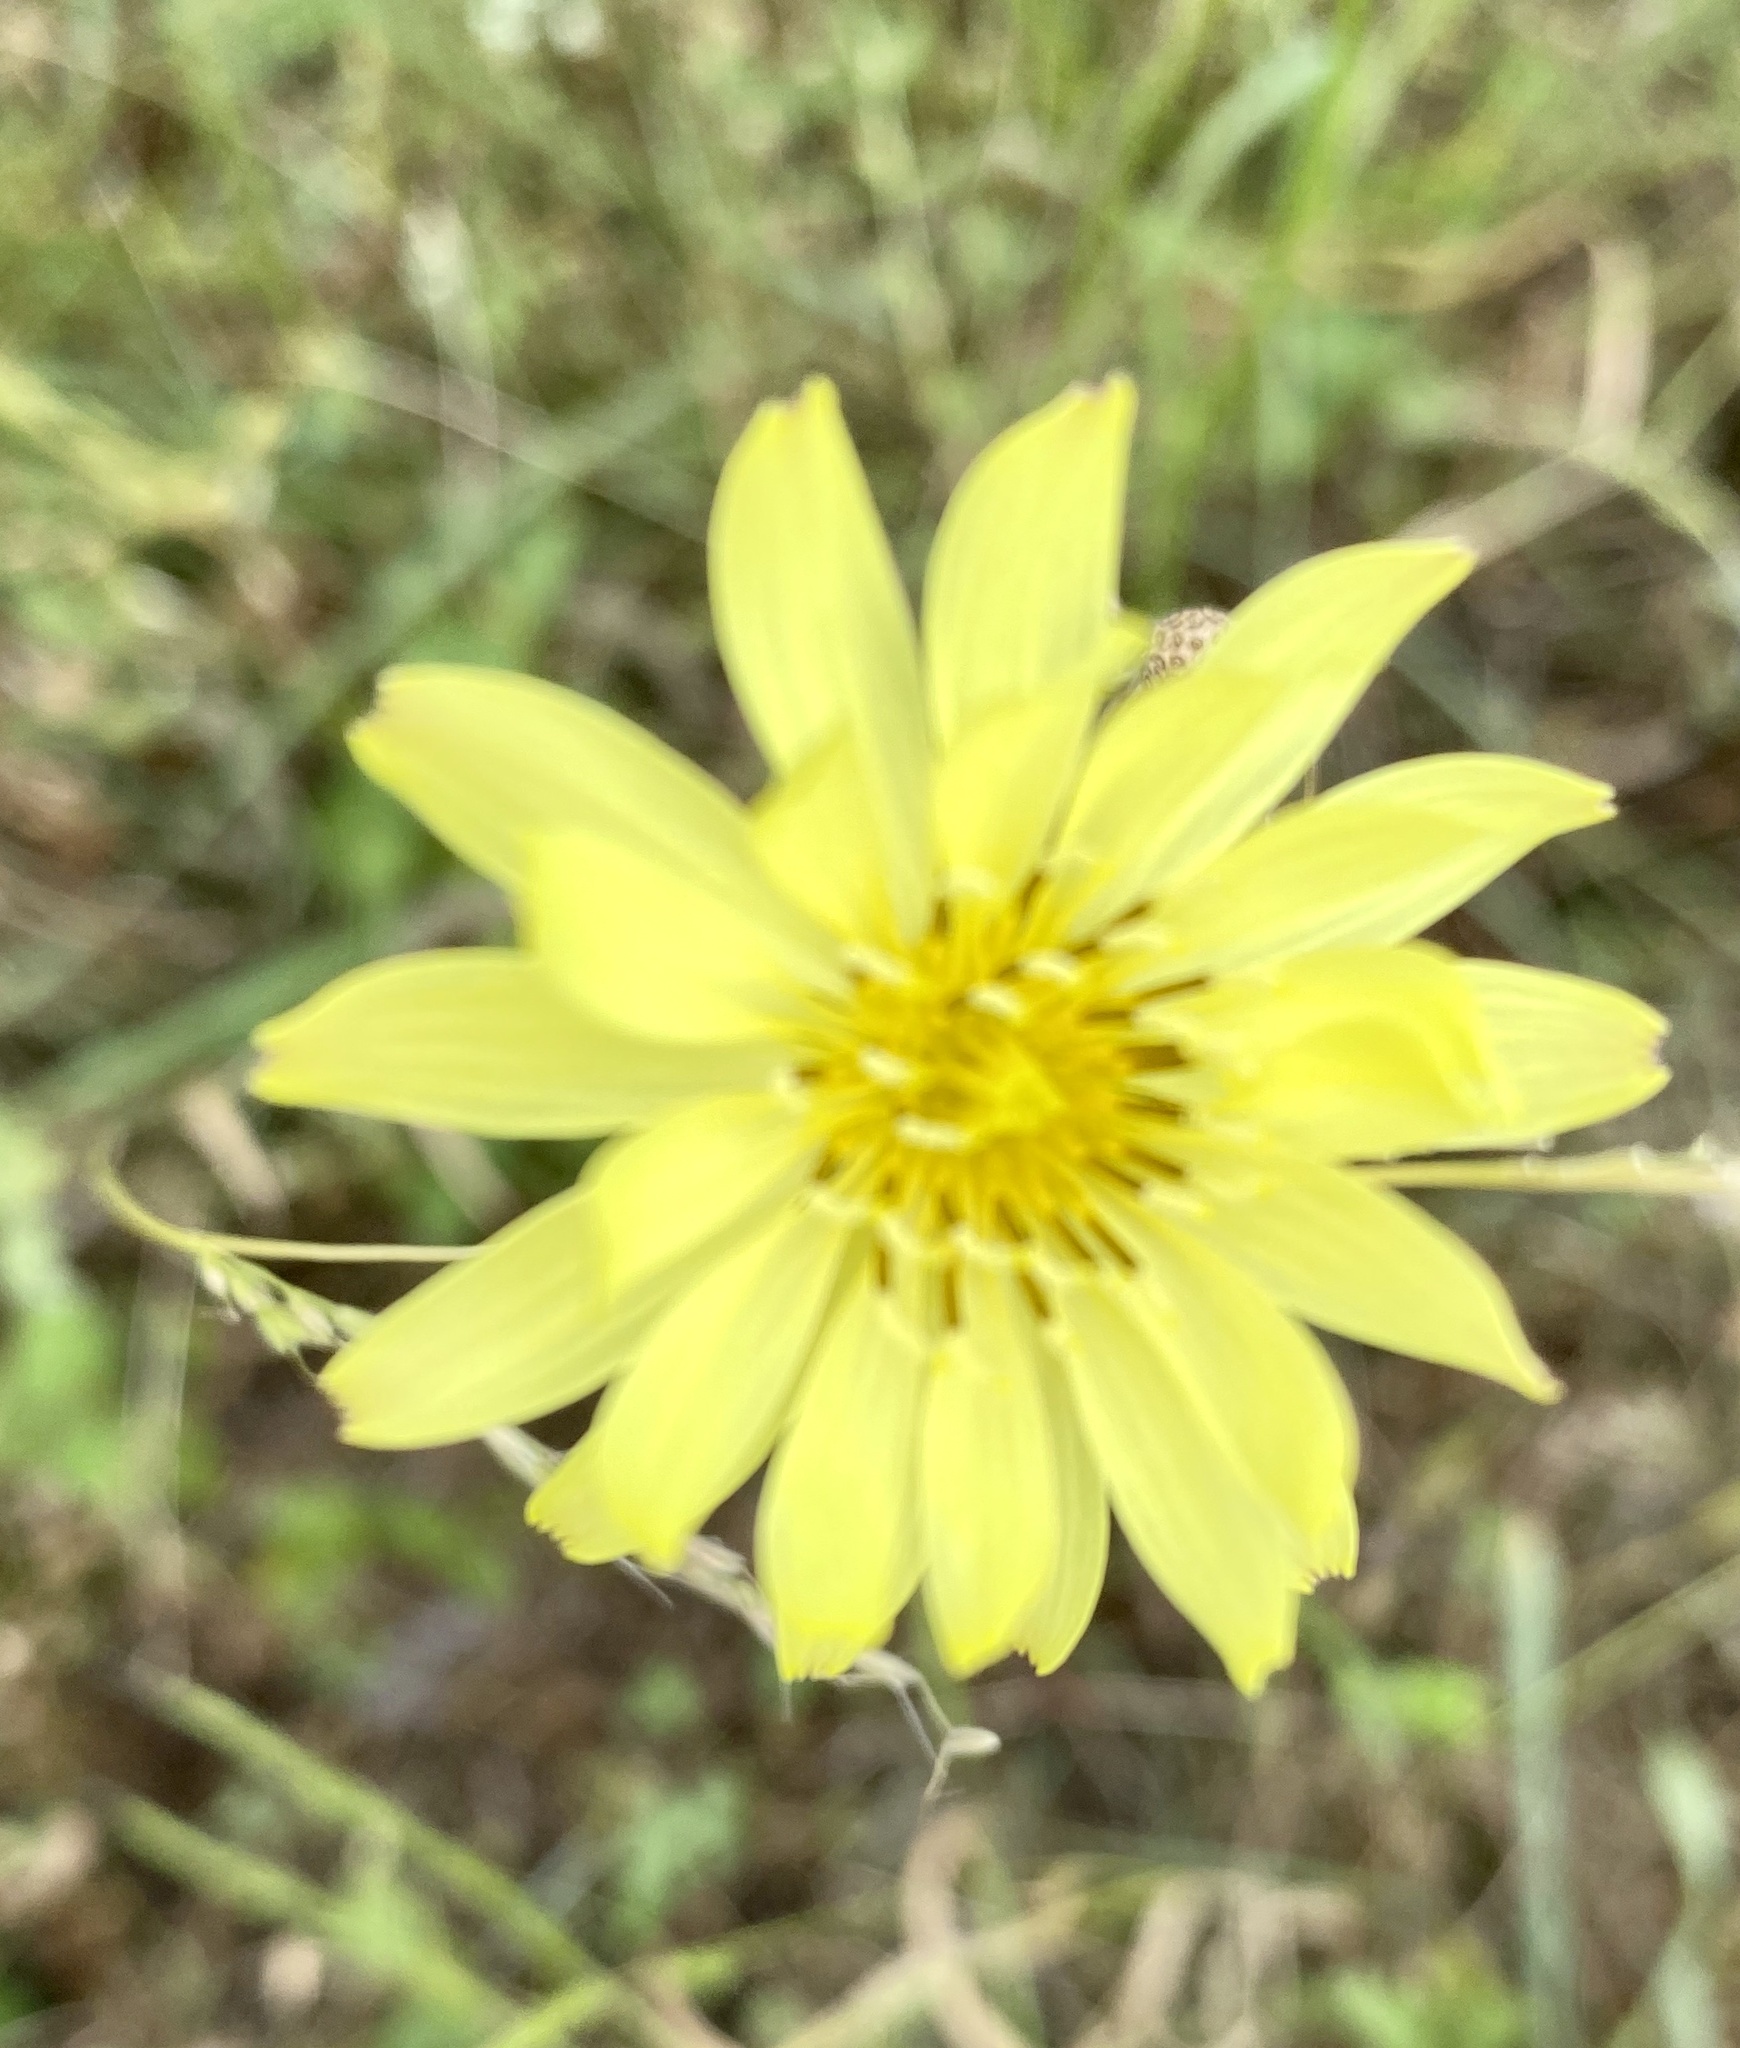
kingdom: Plantae
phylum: Tracheophyta
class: Magnoliopsida
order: Asterales
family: Asteraceae
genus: Pyrrhopappus
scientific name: Pyrrhopappus pauciflorus
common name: Texas false dandelion
